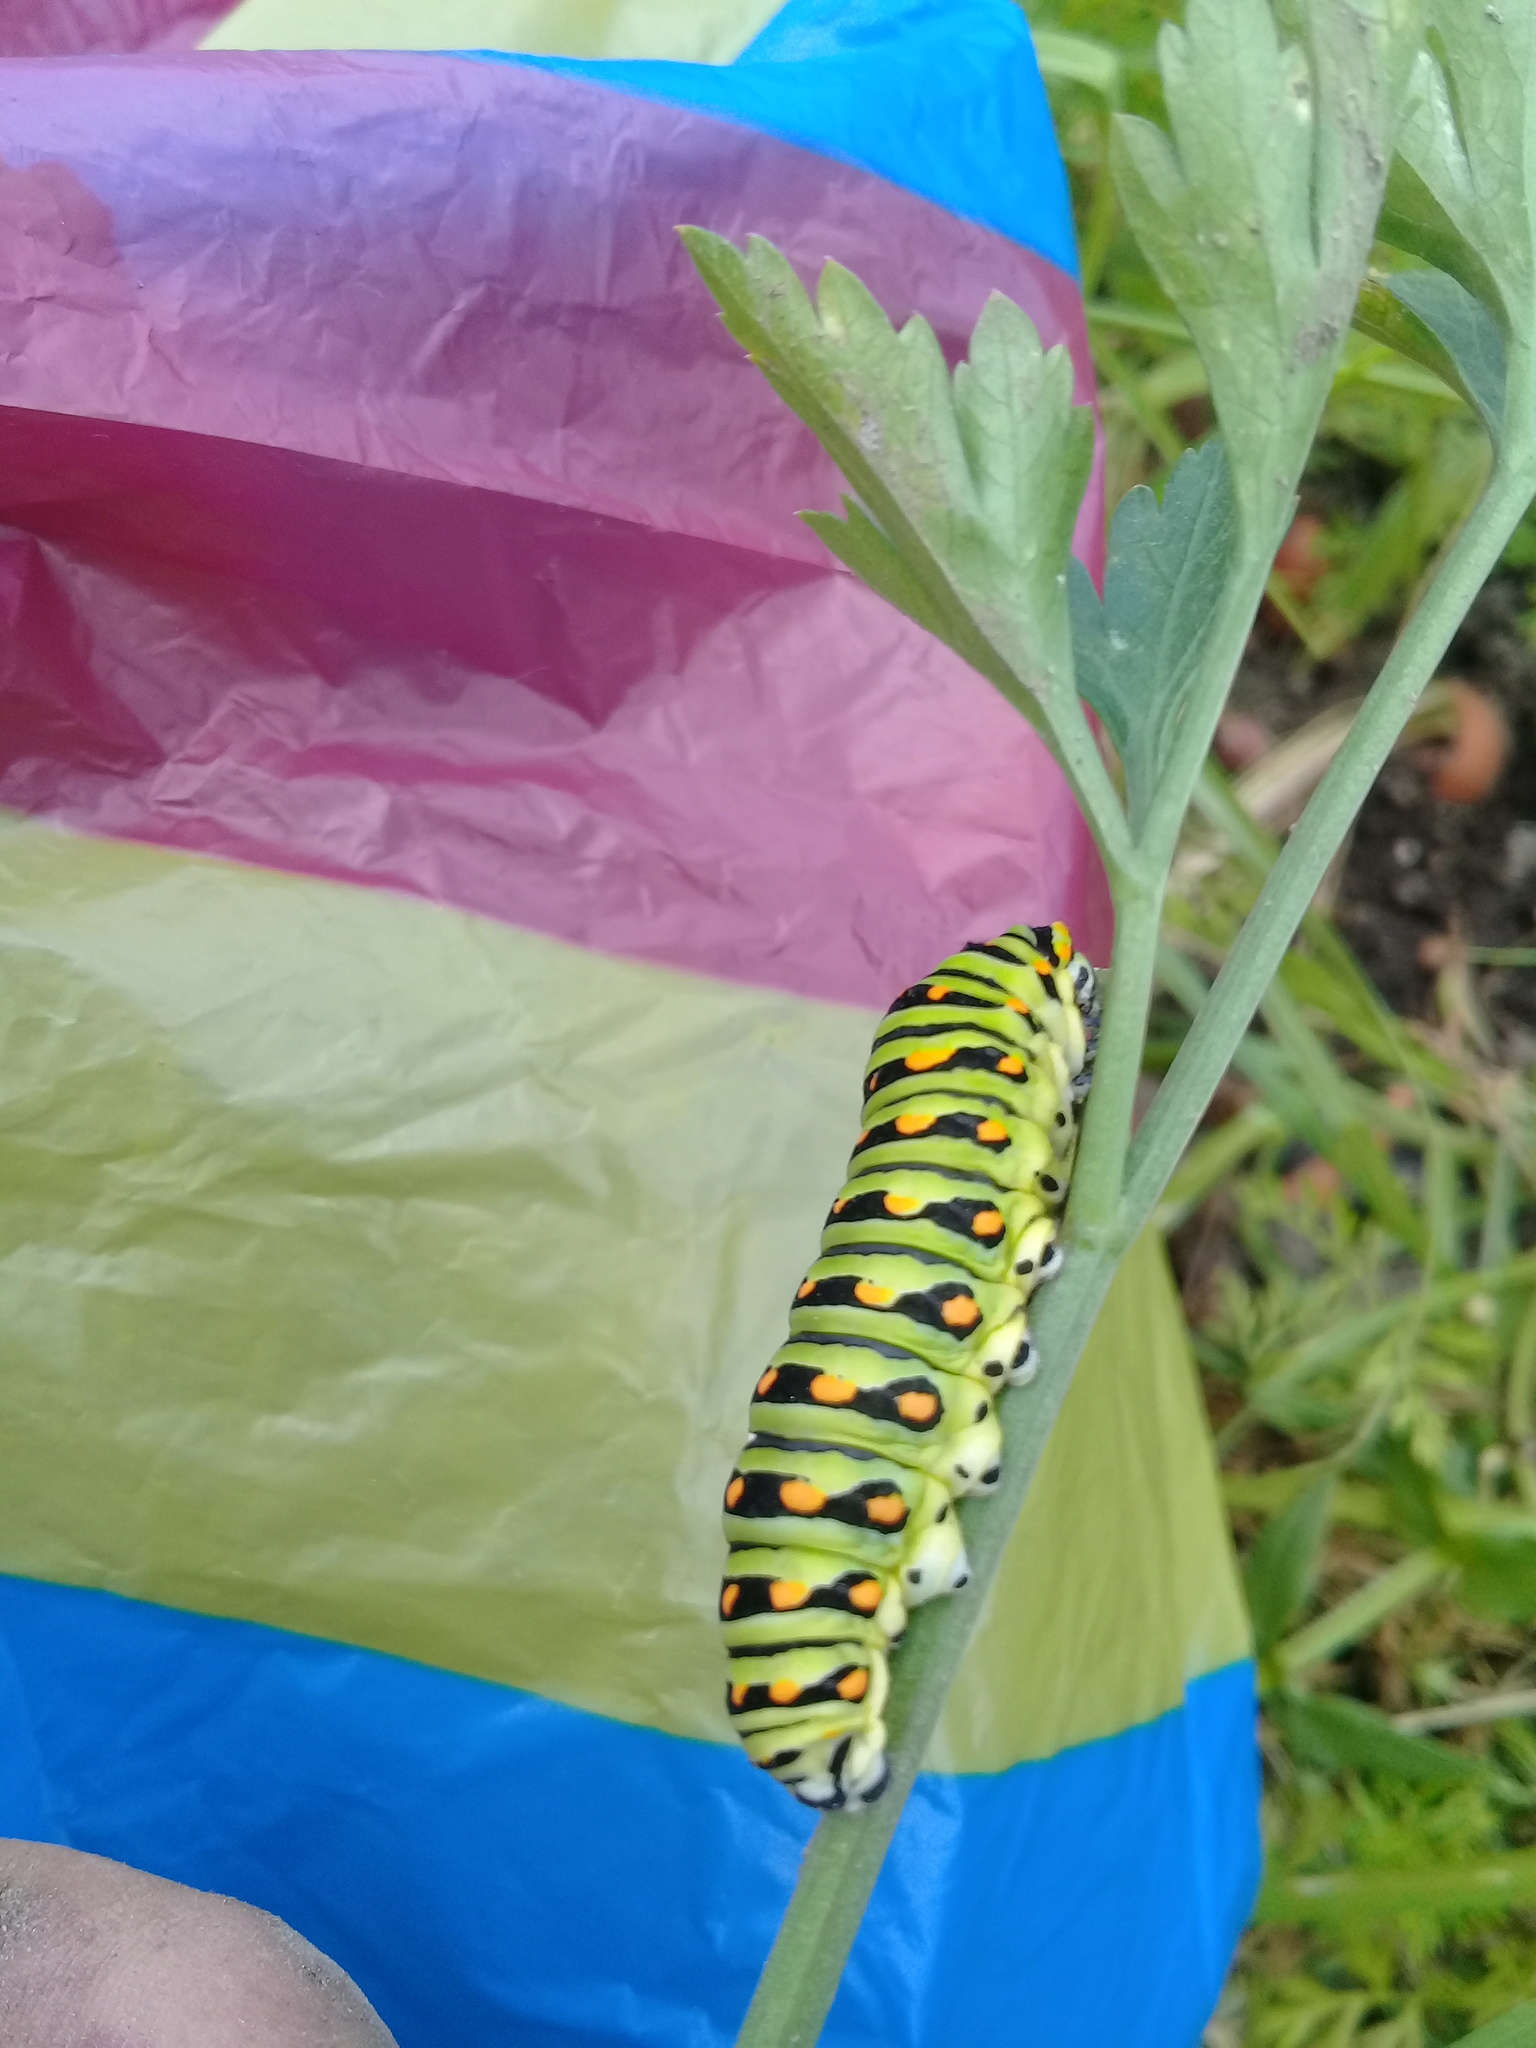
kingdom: Animalia
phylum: Arthropoda
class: Insecta
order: Lepidoptera
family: Papilionidae
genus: Papilio
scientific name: Papilio polyxenes
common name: Black swallowtail
